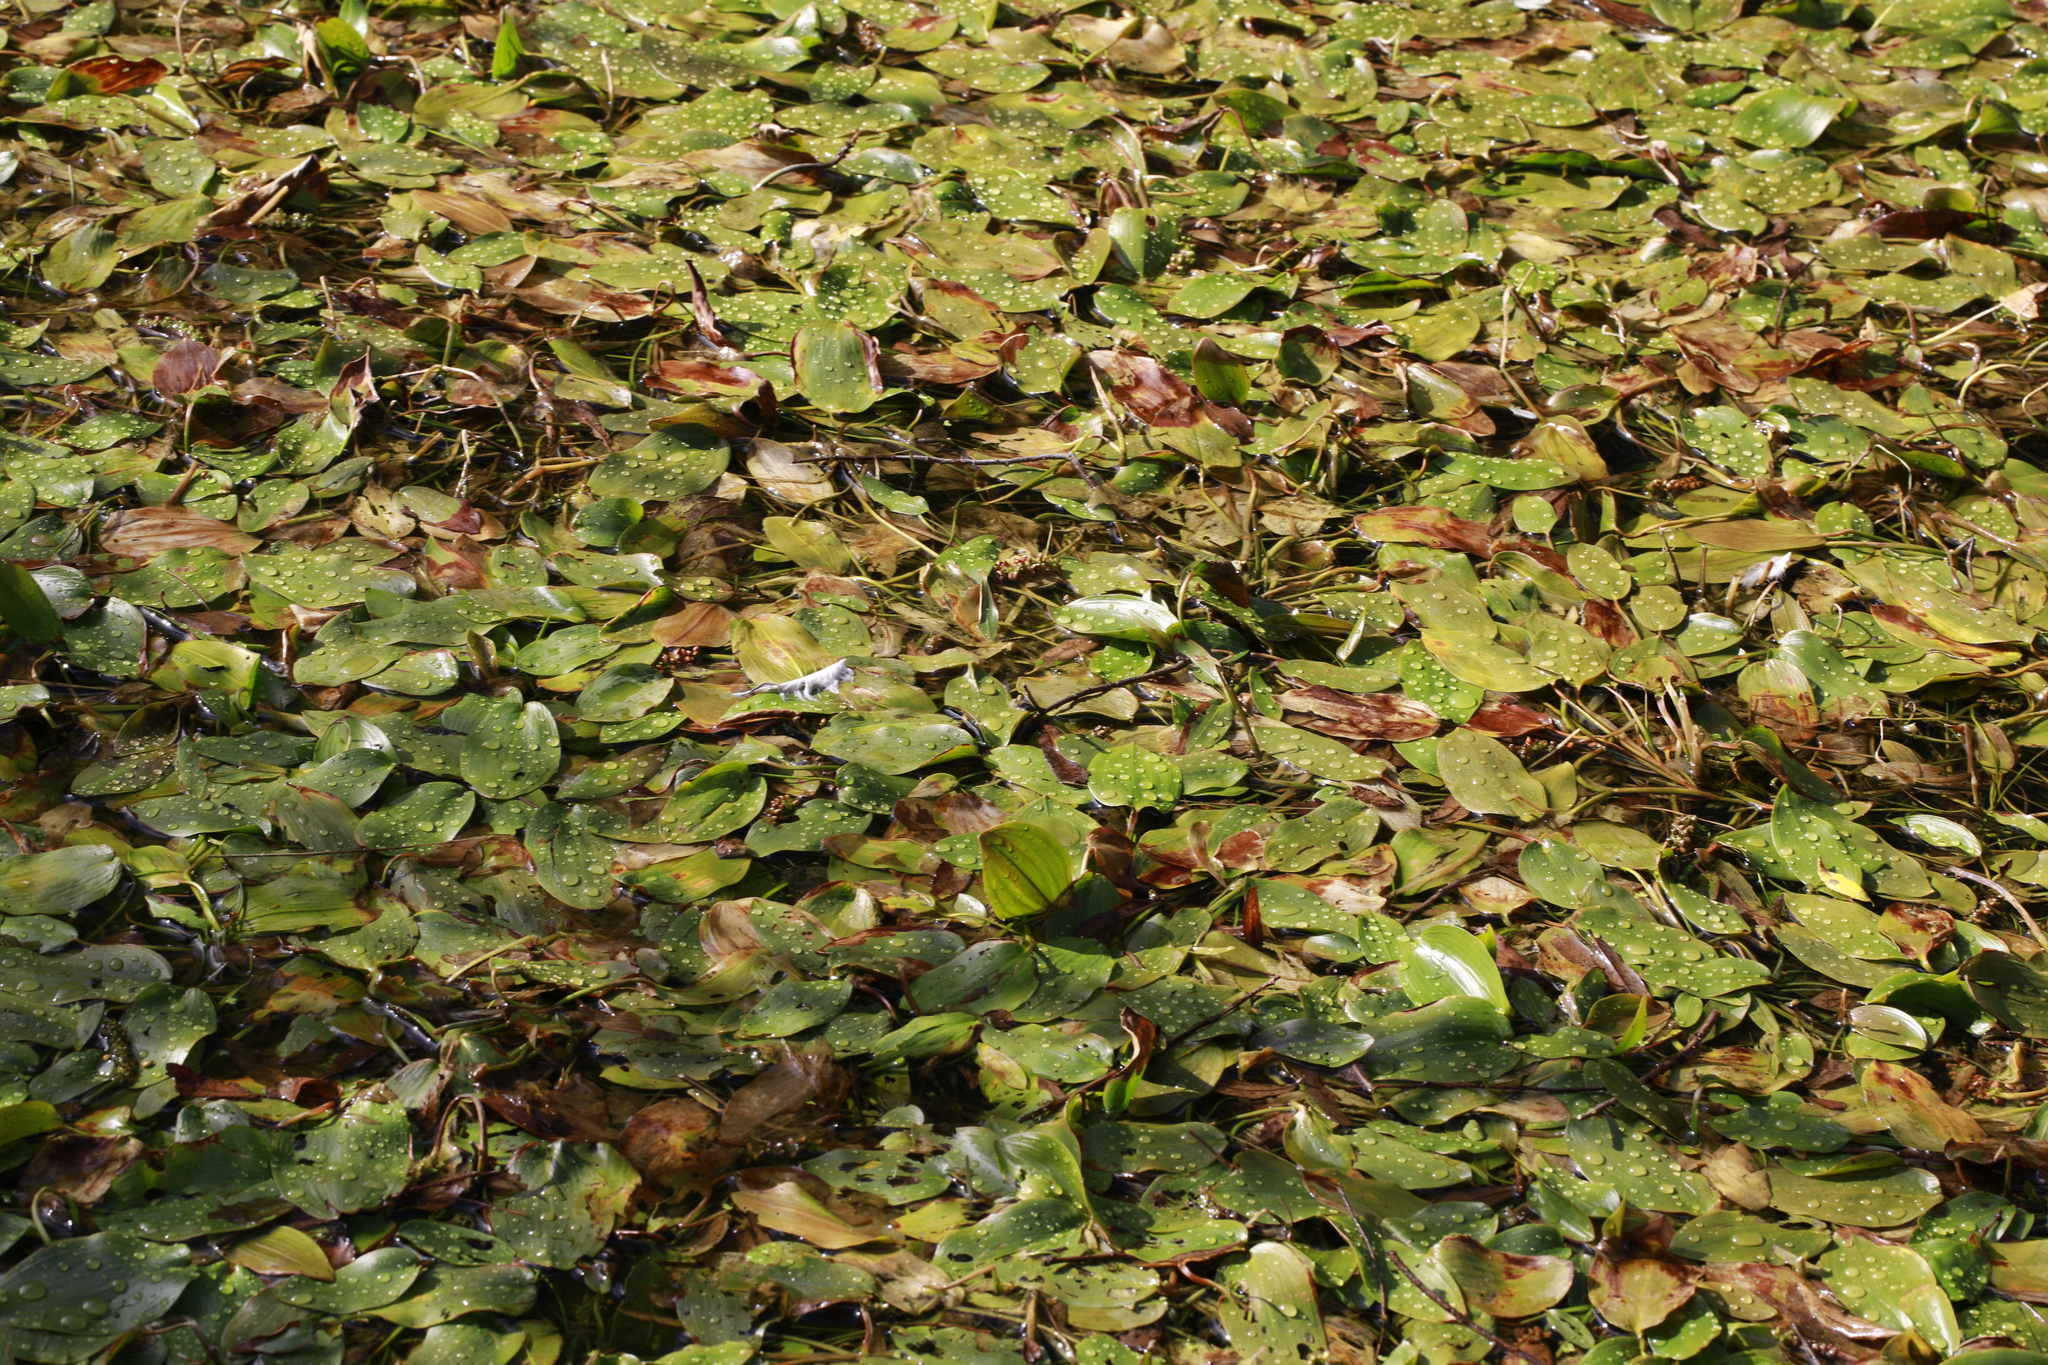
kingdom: Plantae
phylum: Tracheophyta
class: Liliopsida
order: Alismatales
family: Potamogetonaceae
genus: Potamogeton
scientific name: Potamogeton natans
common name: Broad-leaved pondweed
